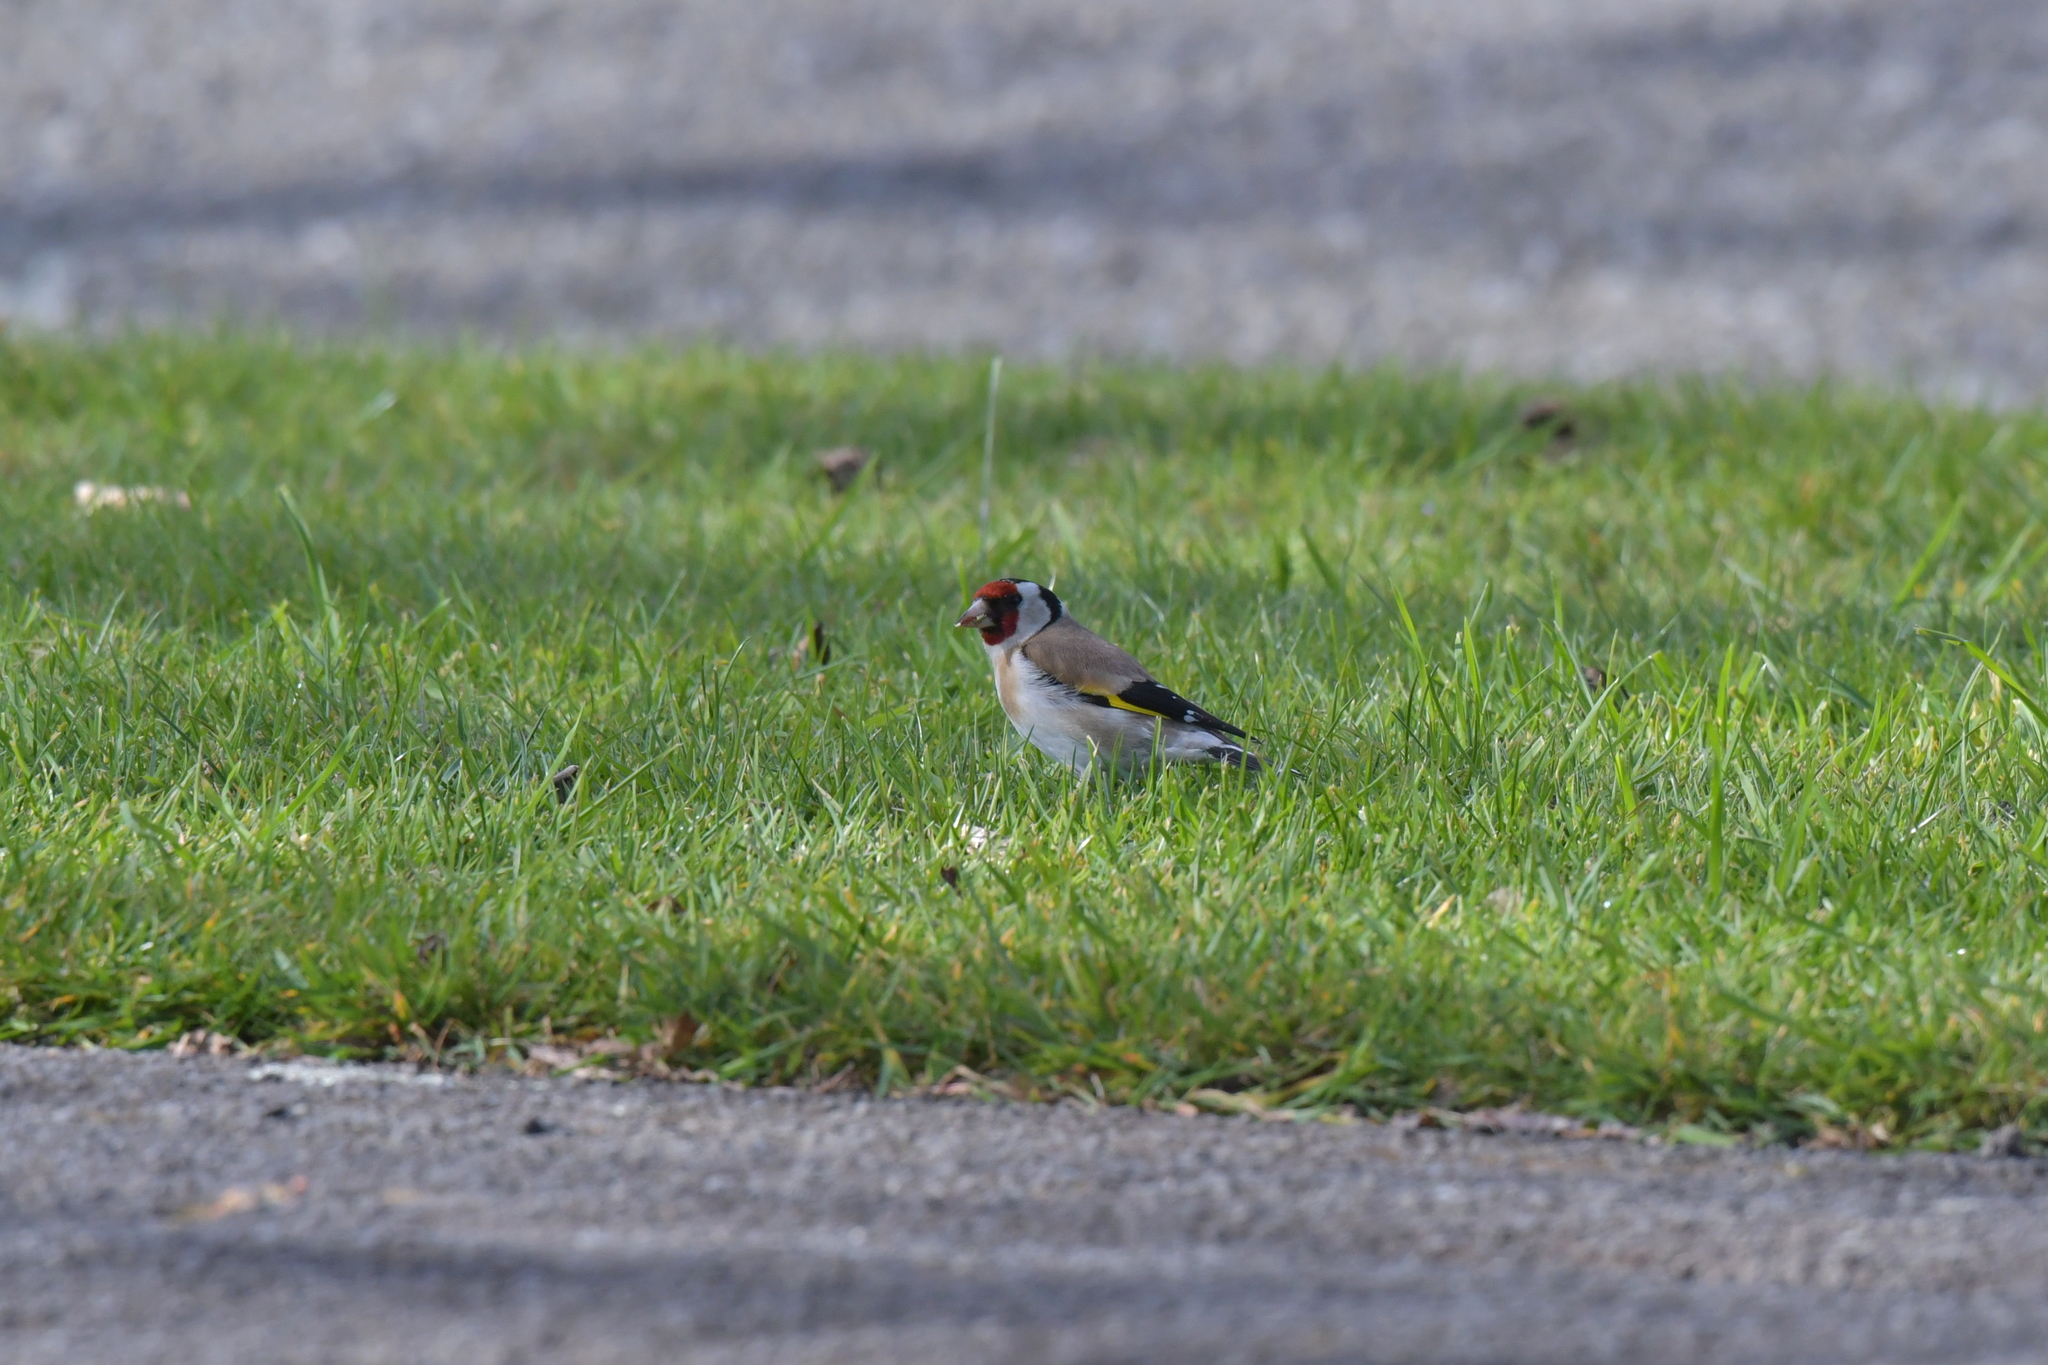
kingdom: Animalia
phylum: Chordata
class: Aves
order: Passeriformes
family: Fringillidae
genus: Carduelis
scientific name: Carduelis carduelis
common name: European goldfinch
